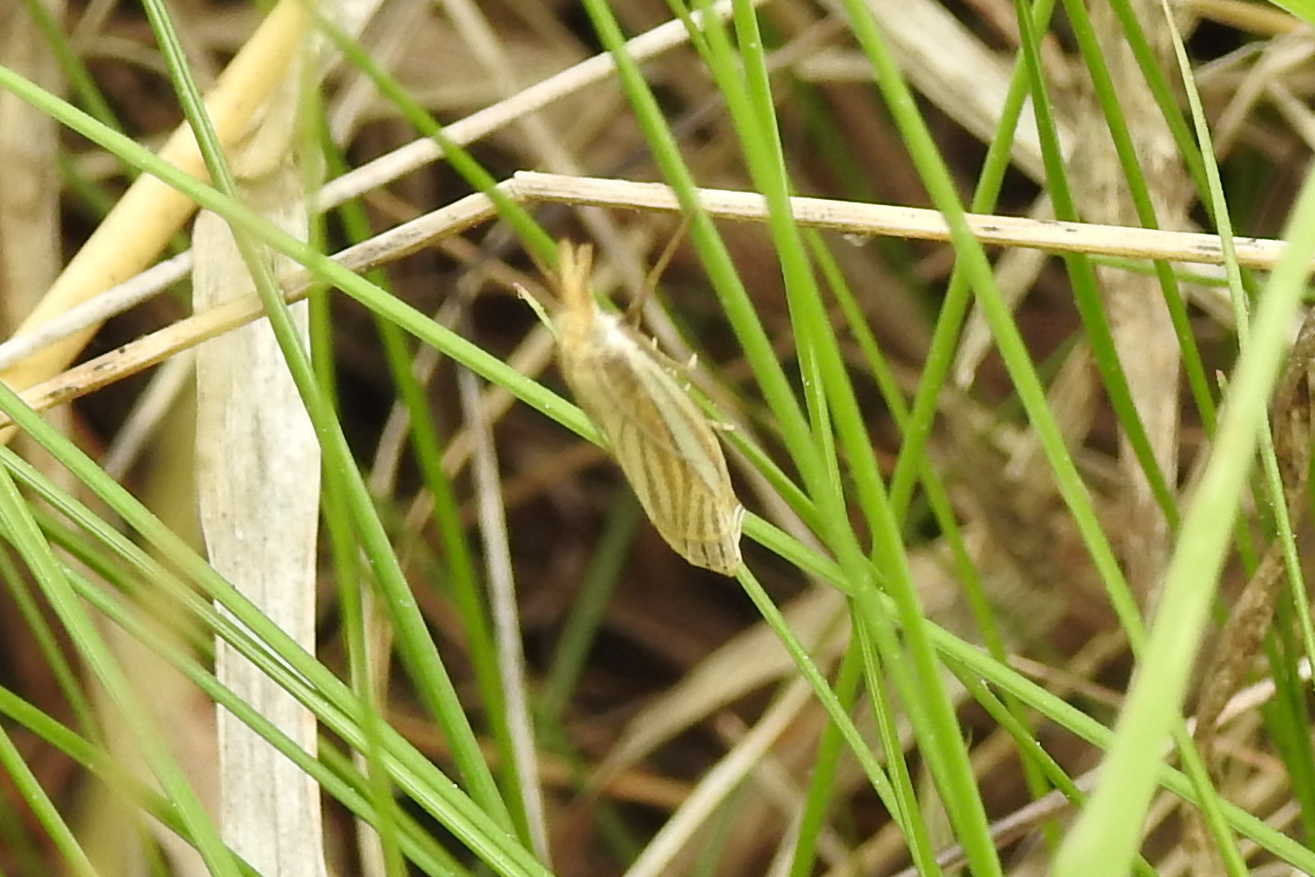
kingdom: Animalia
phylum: Arthropoda
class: Insecta
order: Lepidoptera
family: Crambidae
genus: Crambus
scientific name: Crambus laqueatellus
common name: Eastern grass-veneer
